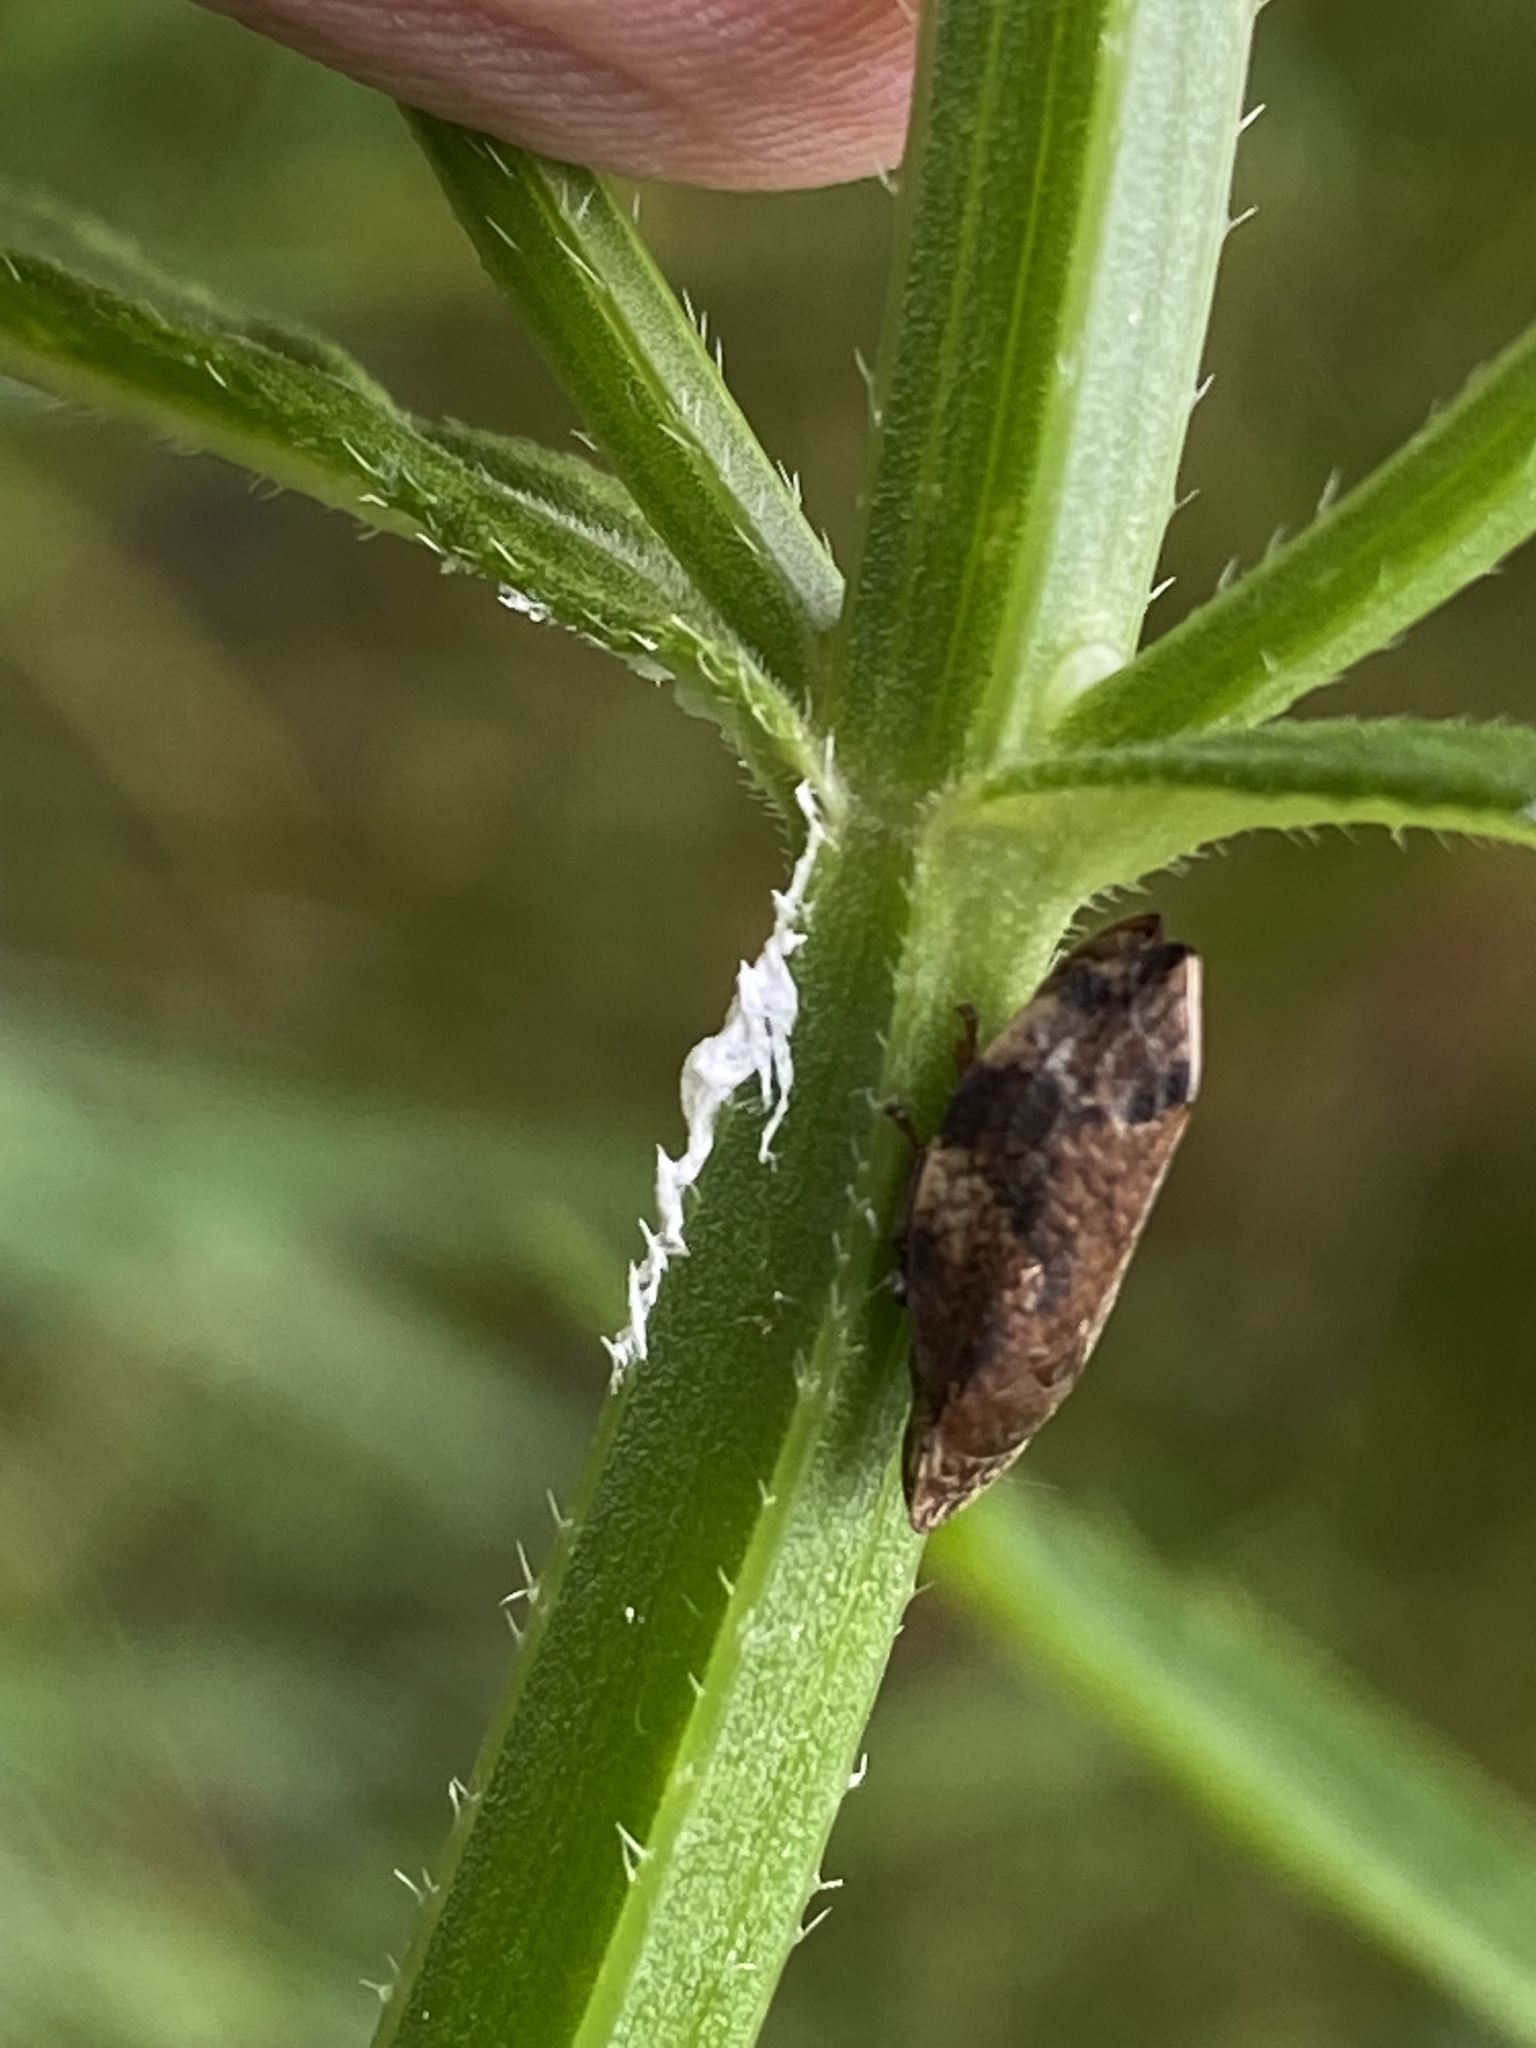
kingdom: Animalia
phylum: Arthropoda
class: Insecta
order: Hemiptera
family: Aphrophoridae
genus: Lepyronia
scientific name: Lepyronia quadrangularis
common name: Diamond-backed spittlebug
